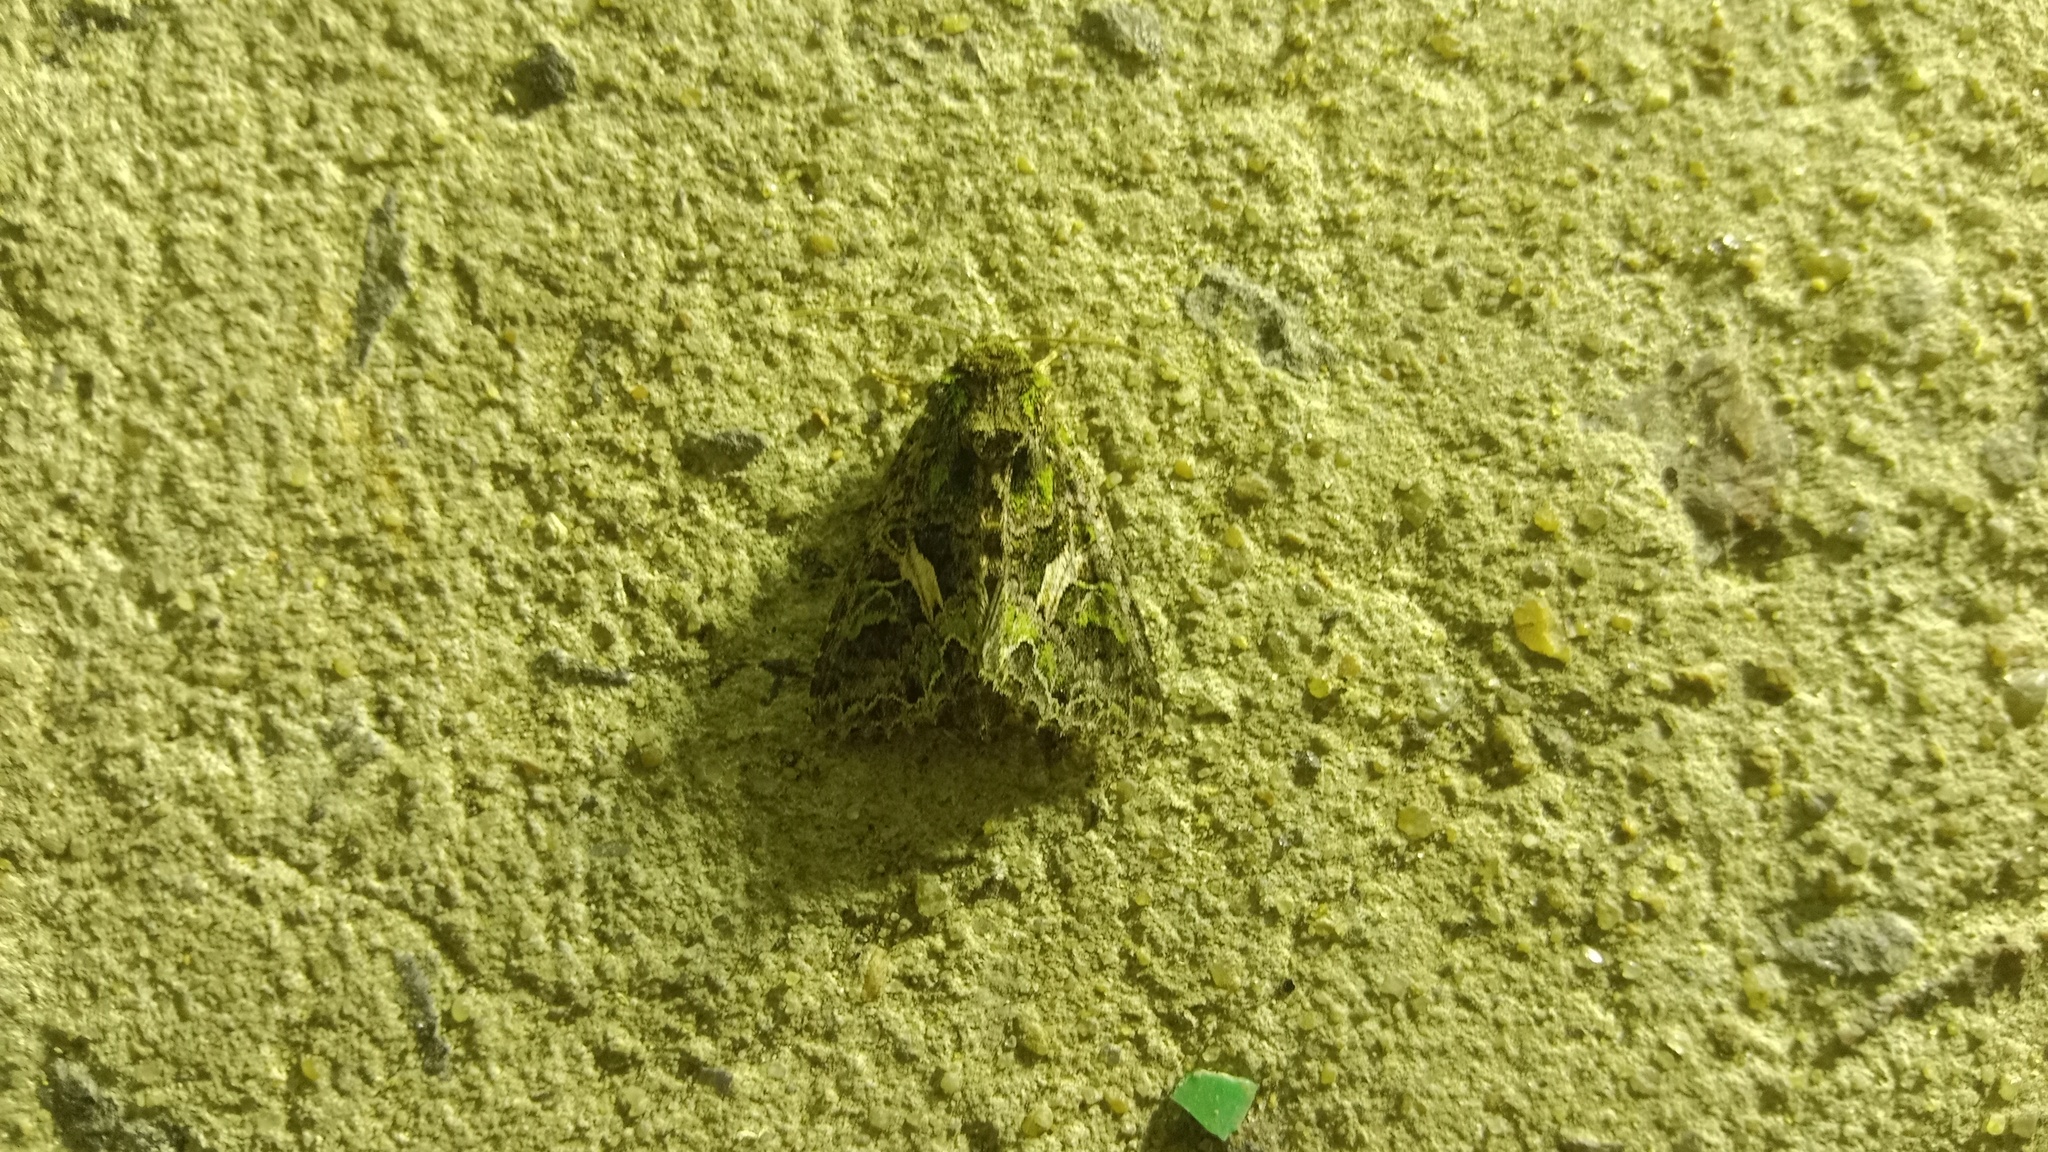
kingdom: Animalia
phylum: Arthropoda
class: Insecta
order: Lepidoptera
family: Noctuidae
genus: Trachea
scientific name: Trachea atriplicis
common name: Orache moth
